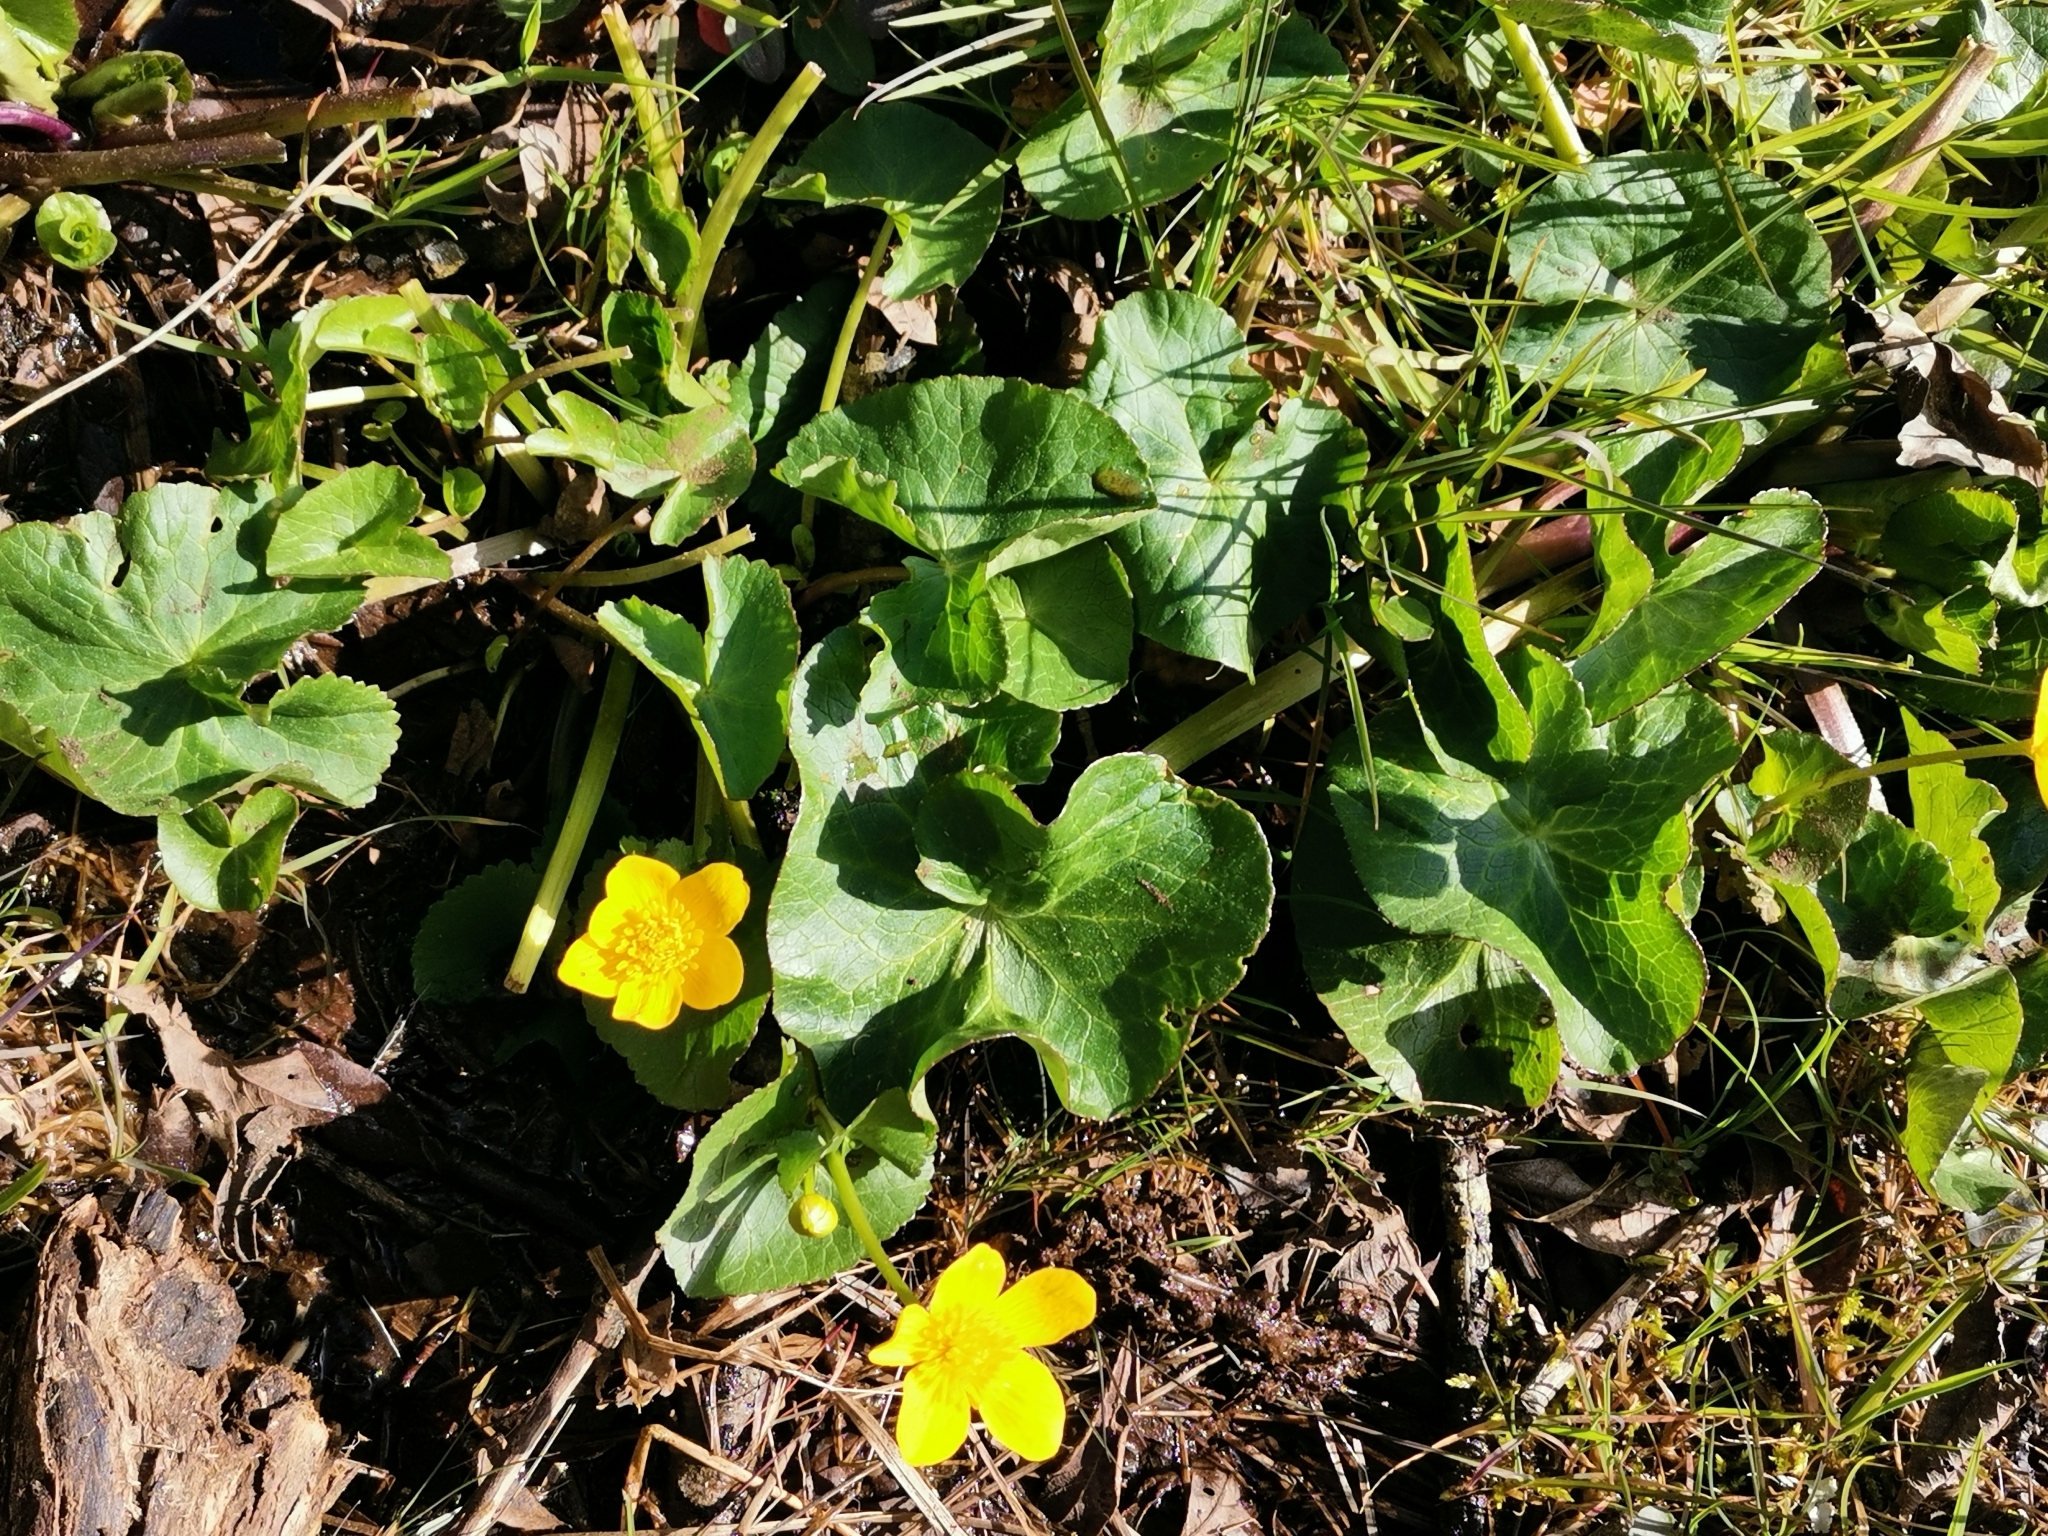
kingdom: Plantae
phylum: Tracheophyta
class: Magnoliopsida
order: Ranunculales
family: Ranunculaceae
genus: Caltha
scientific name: Caltha palustris
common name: Marsh marigold
